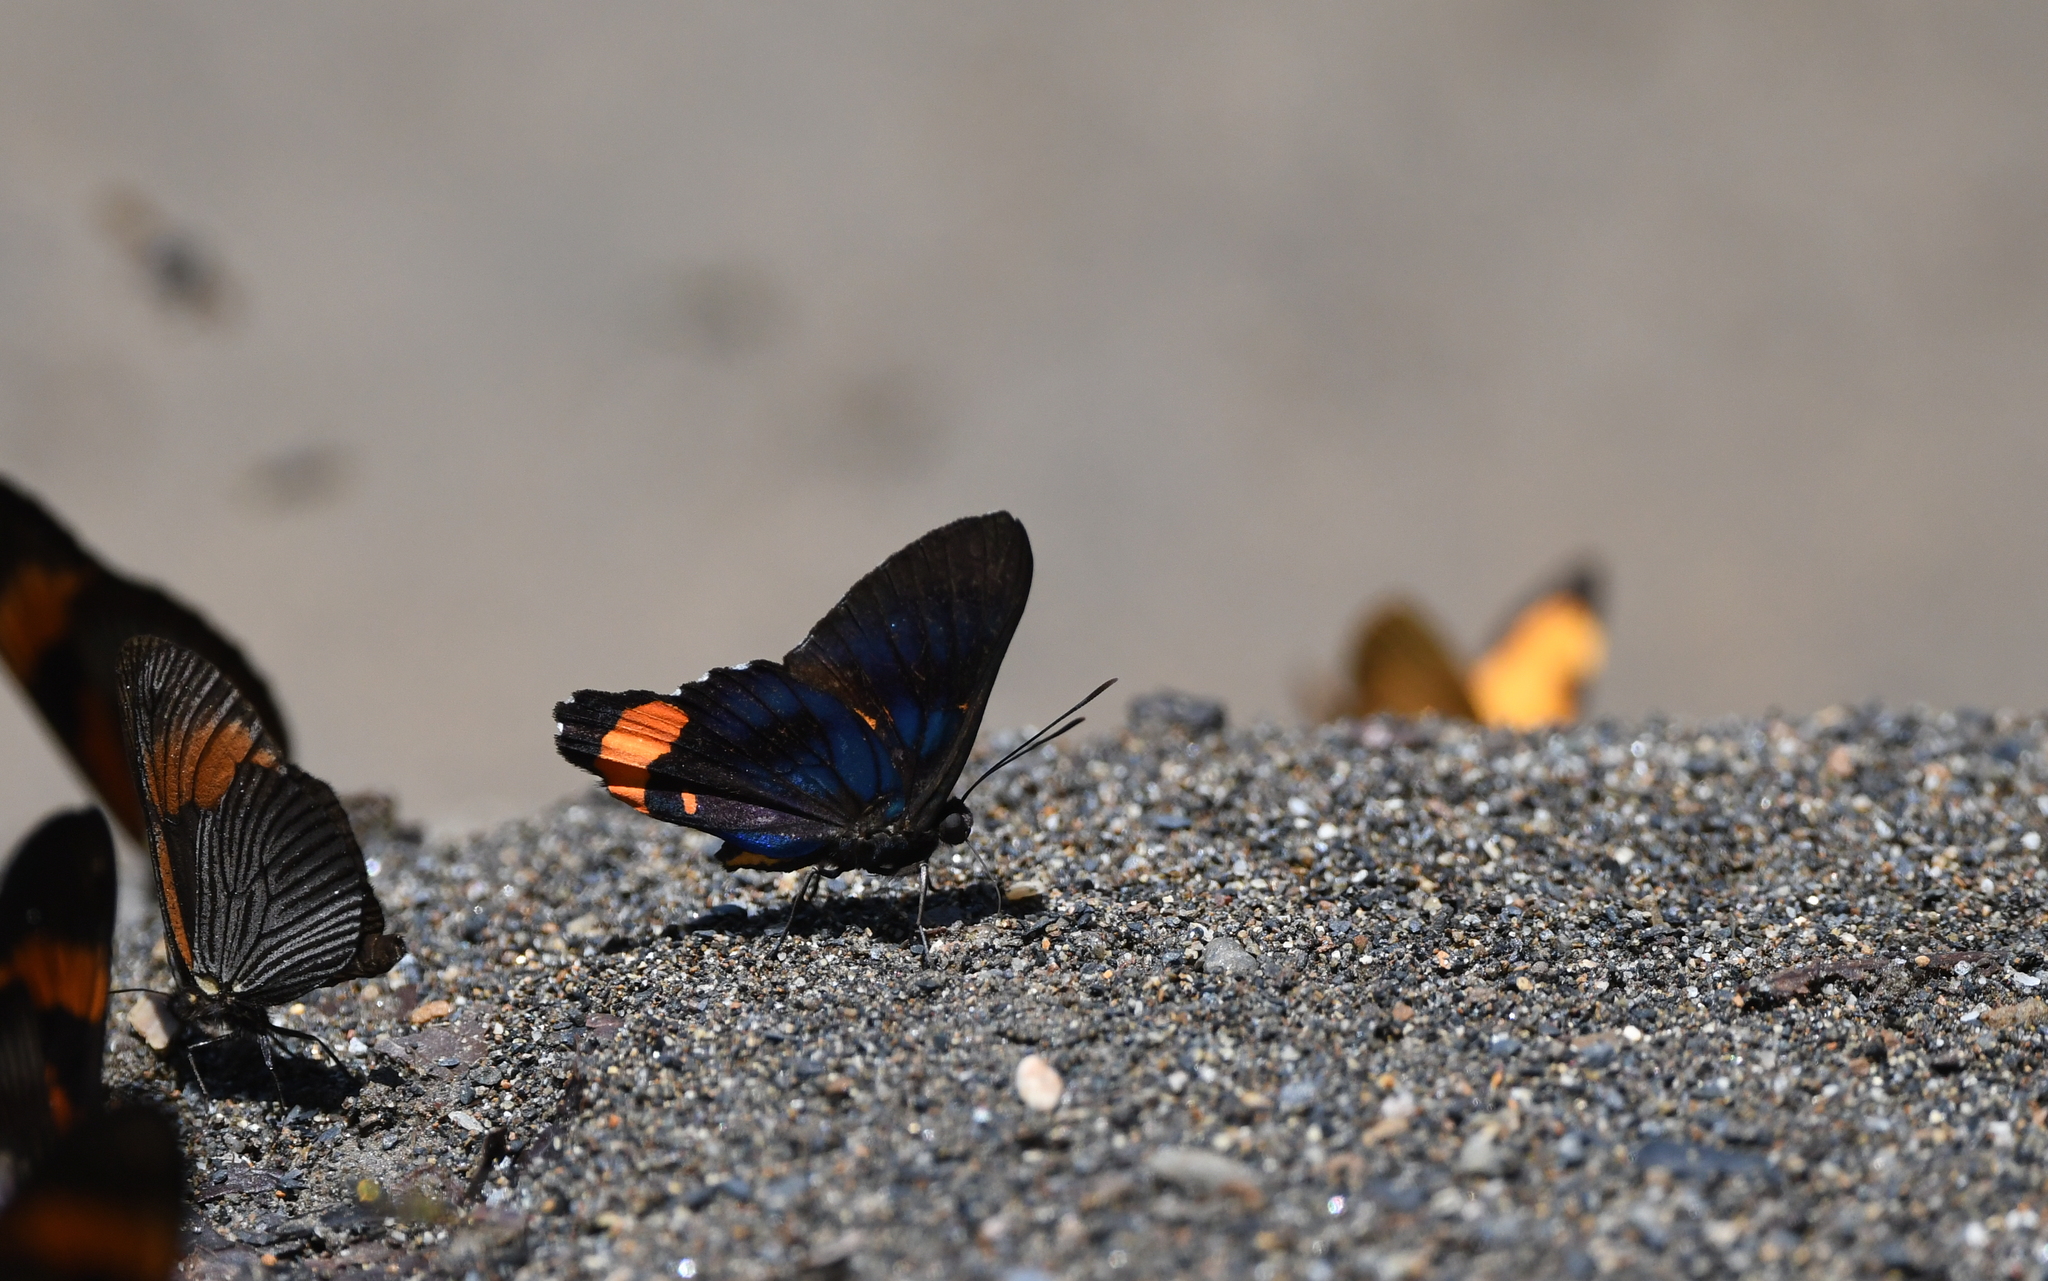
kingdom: Animalia
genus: Ancyluris
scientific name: Ancyluris mira
